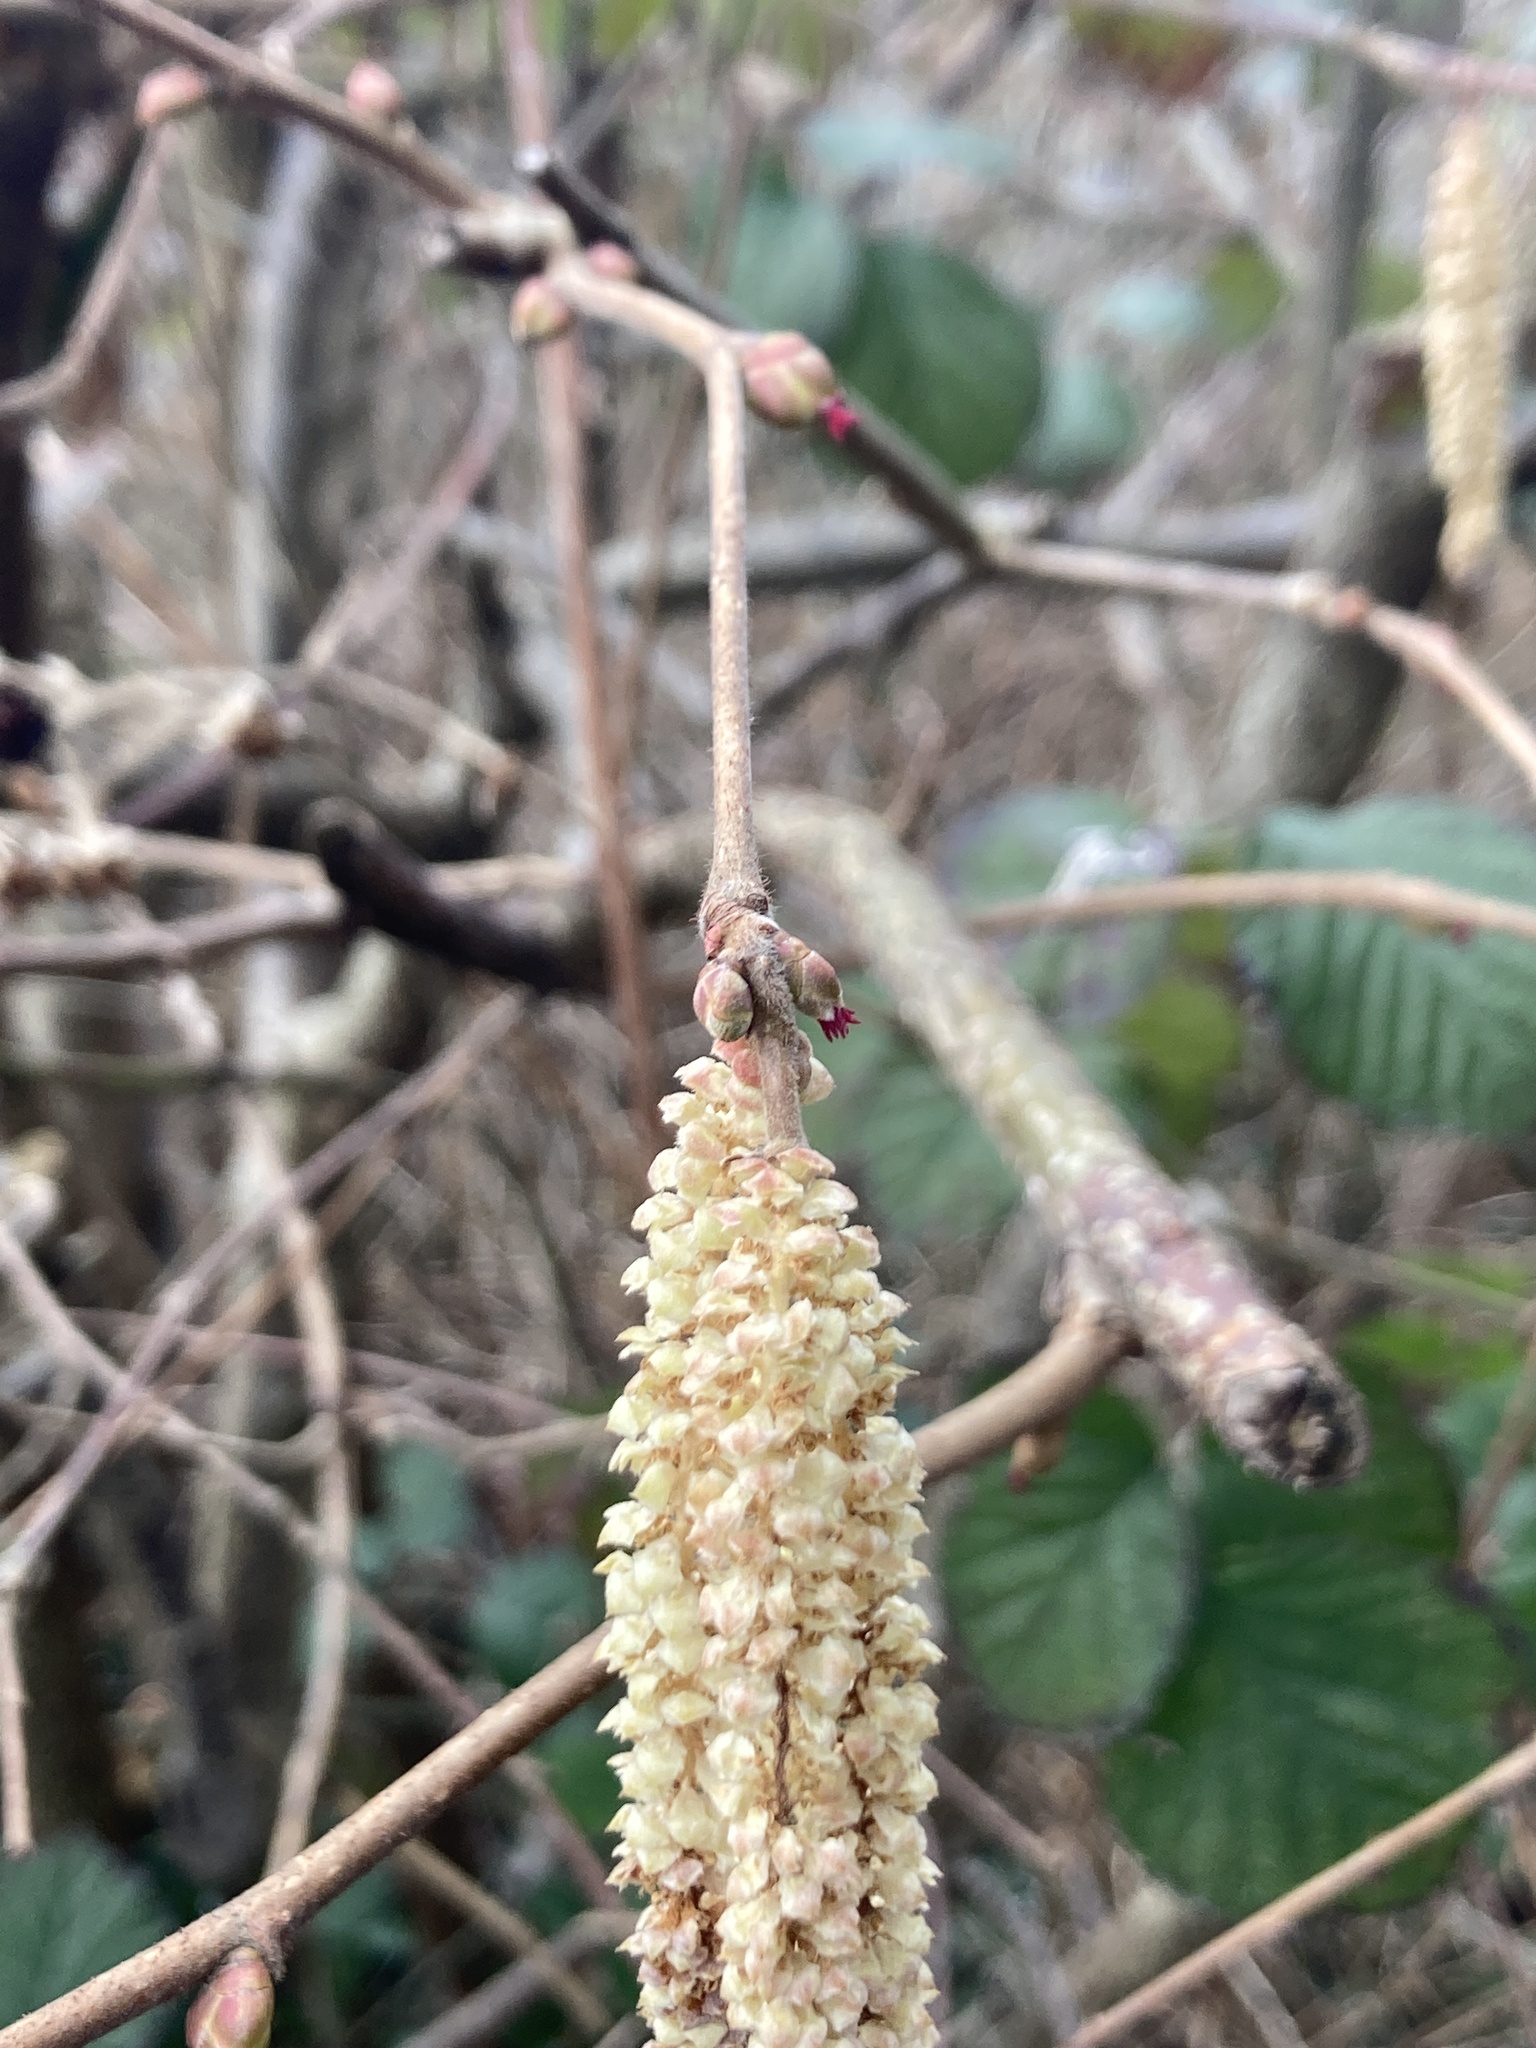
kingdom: Plantae
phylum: Tracheophyta
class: Magnoliopsida
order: Fagales
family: Betulaceae
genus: Corylus
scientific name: Corylus avellana
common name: European hazel
